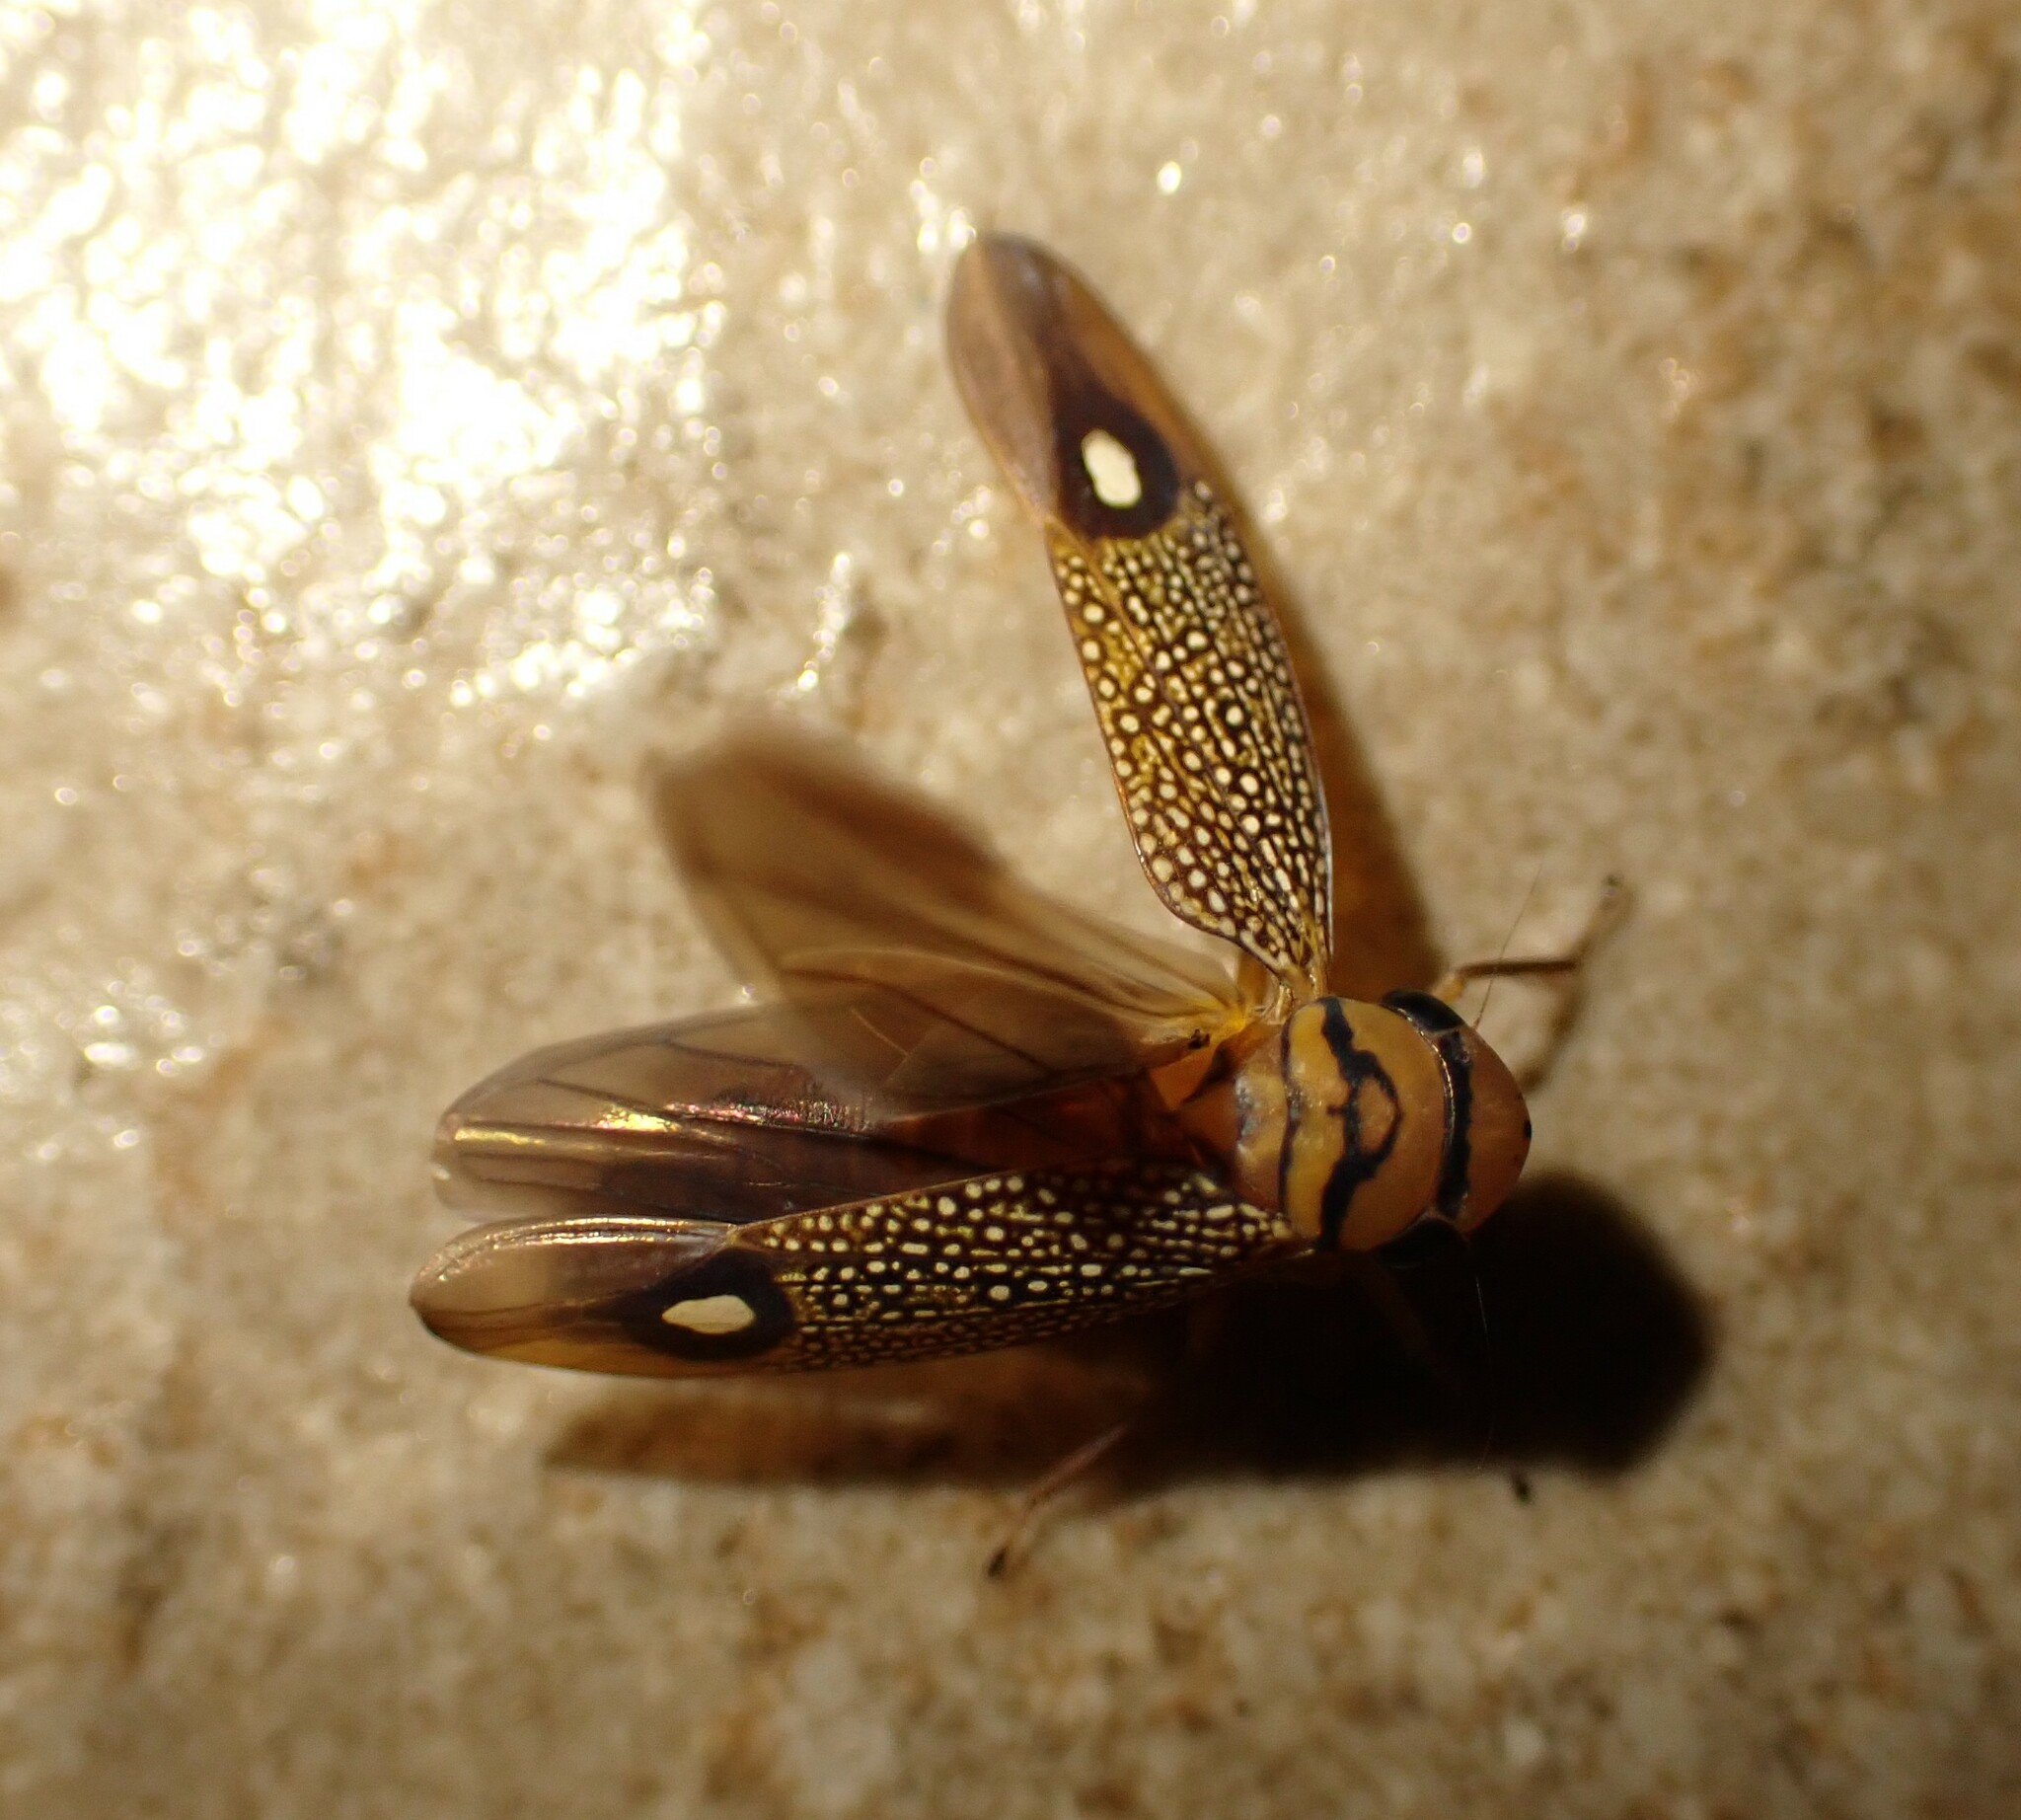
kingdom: Animalia
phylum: Arthropoda
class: Insecta
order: Hemiptera
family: Cicadellidae
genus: Scoposcartula
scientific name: Scoposcartula oculata
